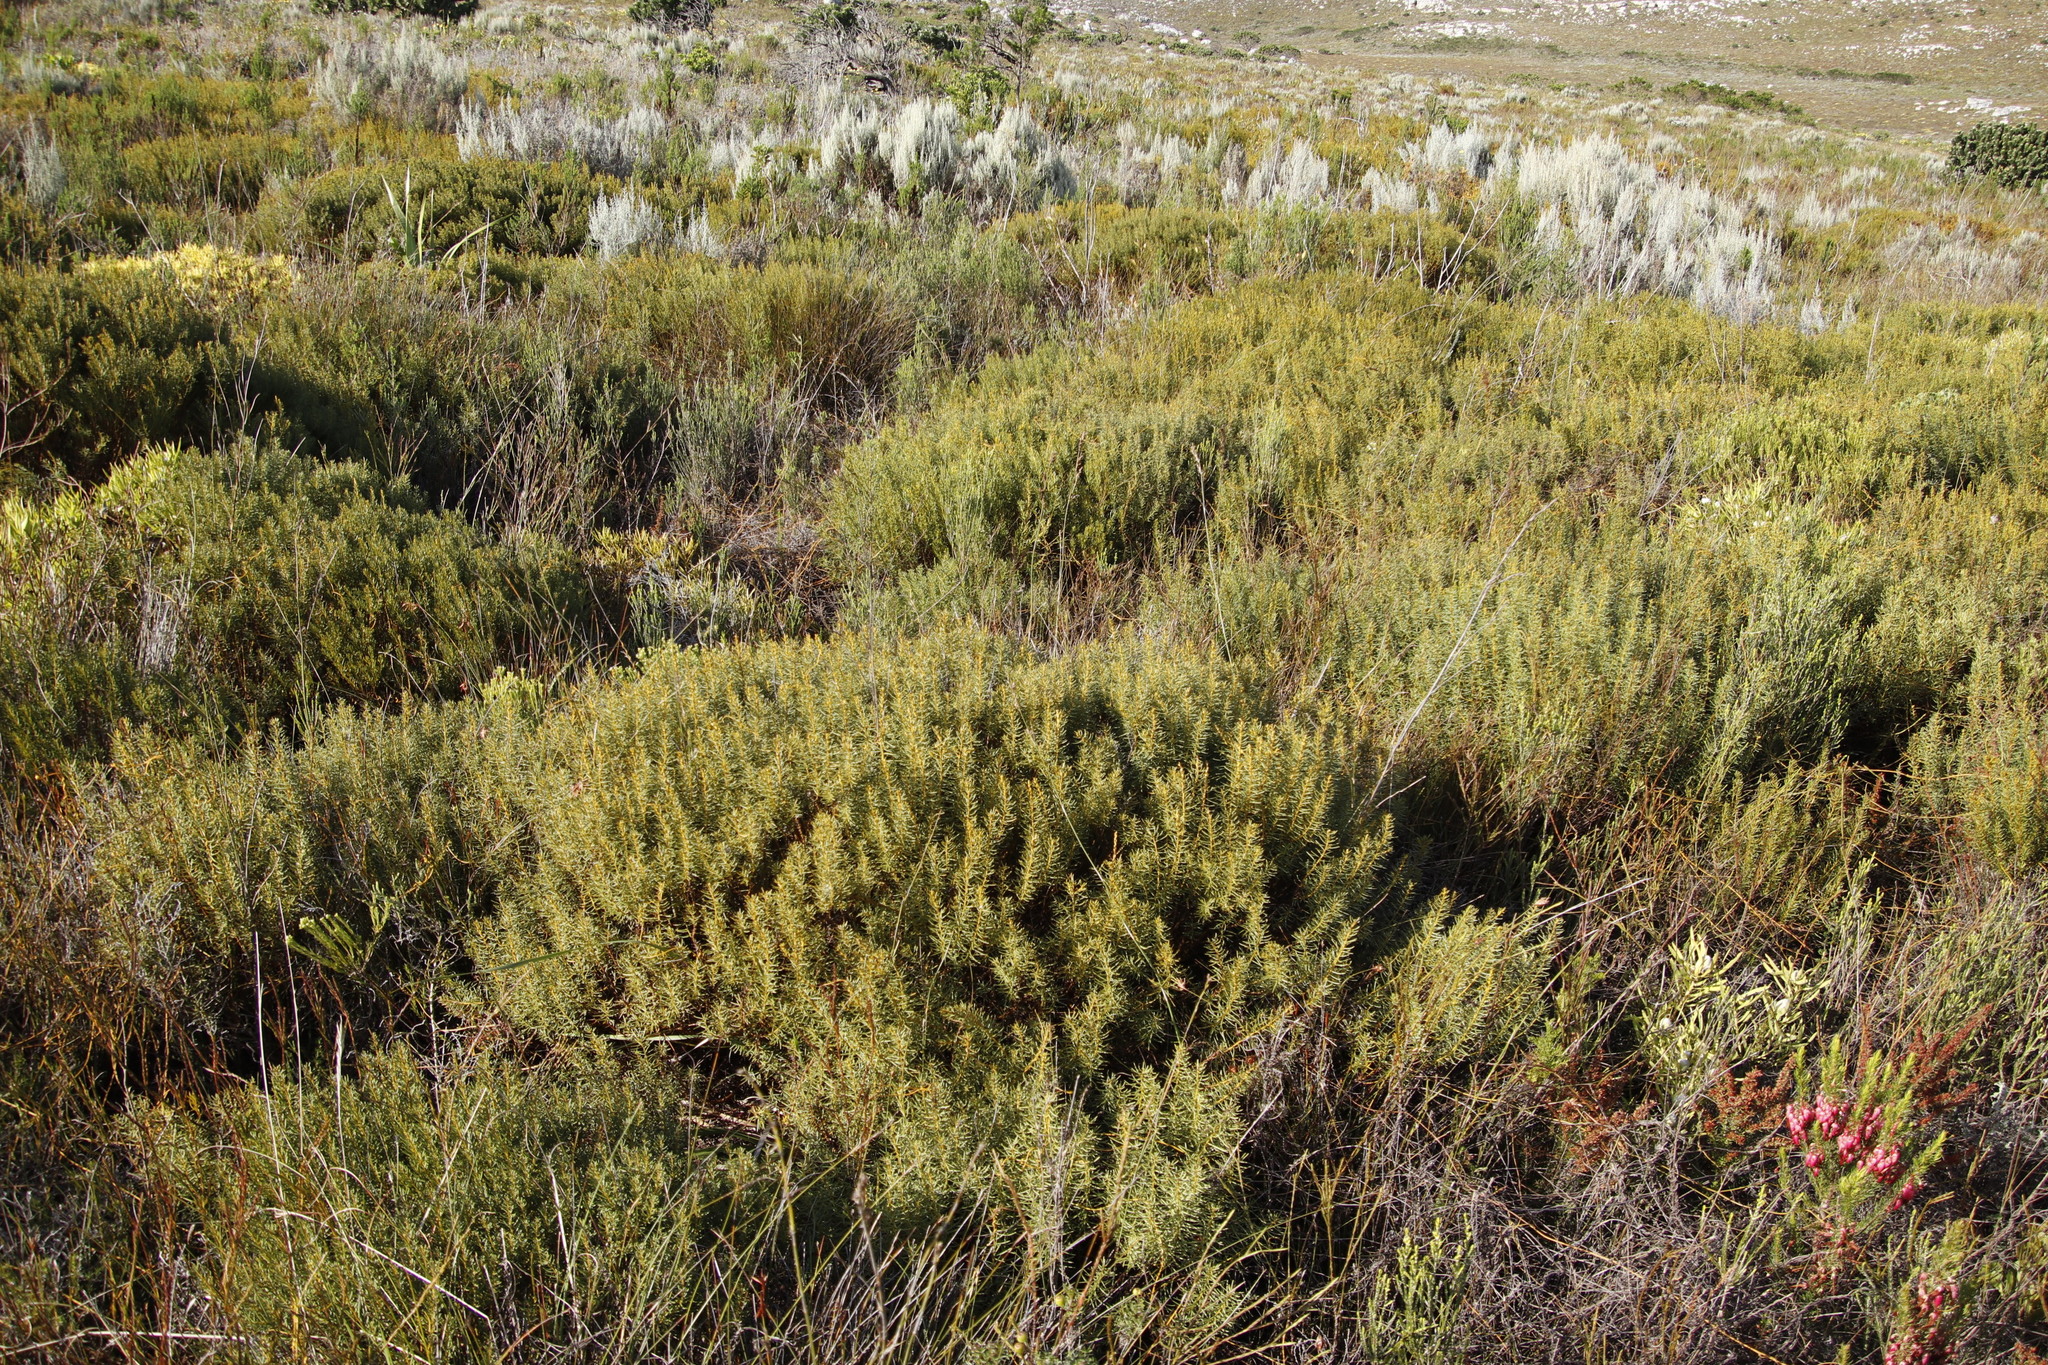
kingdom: Plantae
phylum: Tracheophyta
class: Magnoliopsida
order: Fabales
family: Fabaceae
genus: Cyclopia
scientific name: Cyclopia genistoides
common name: Honeybush tea
